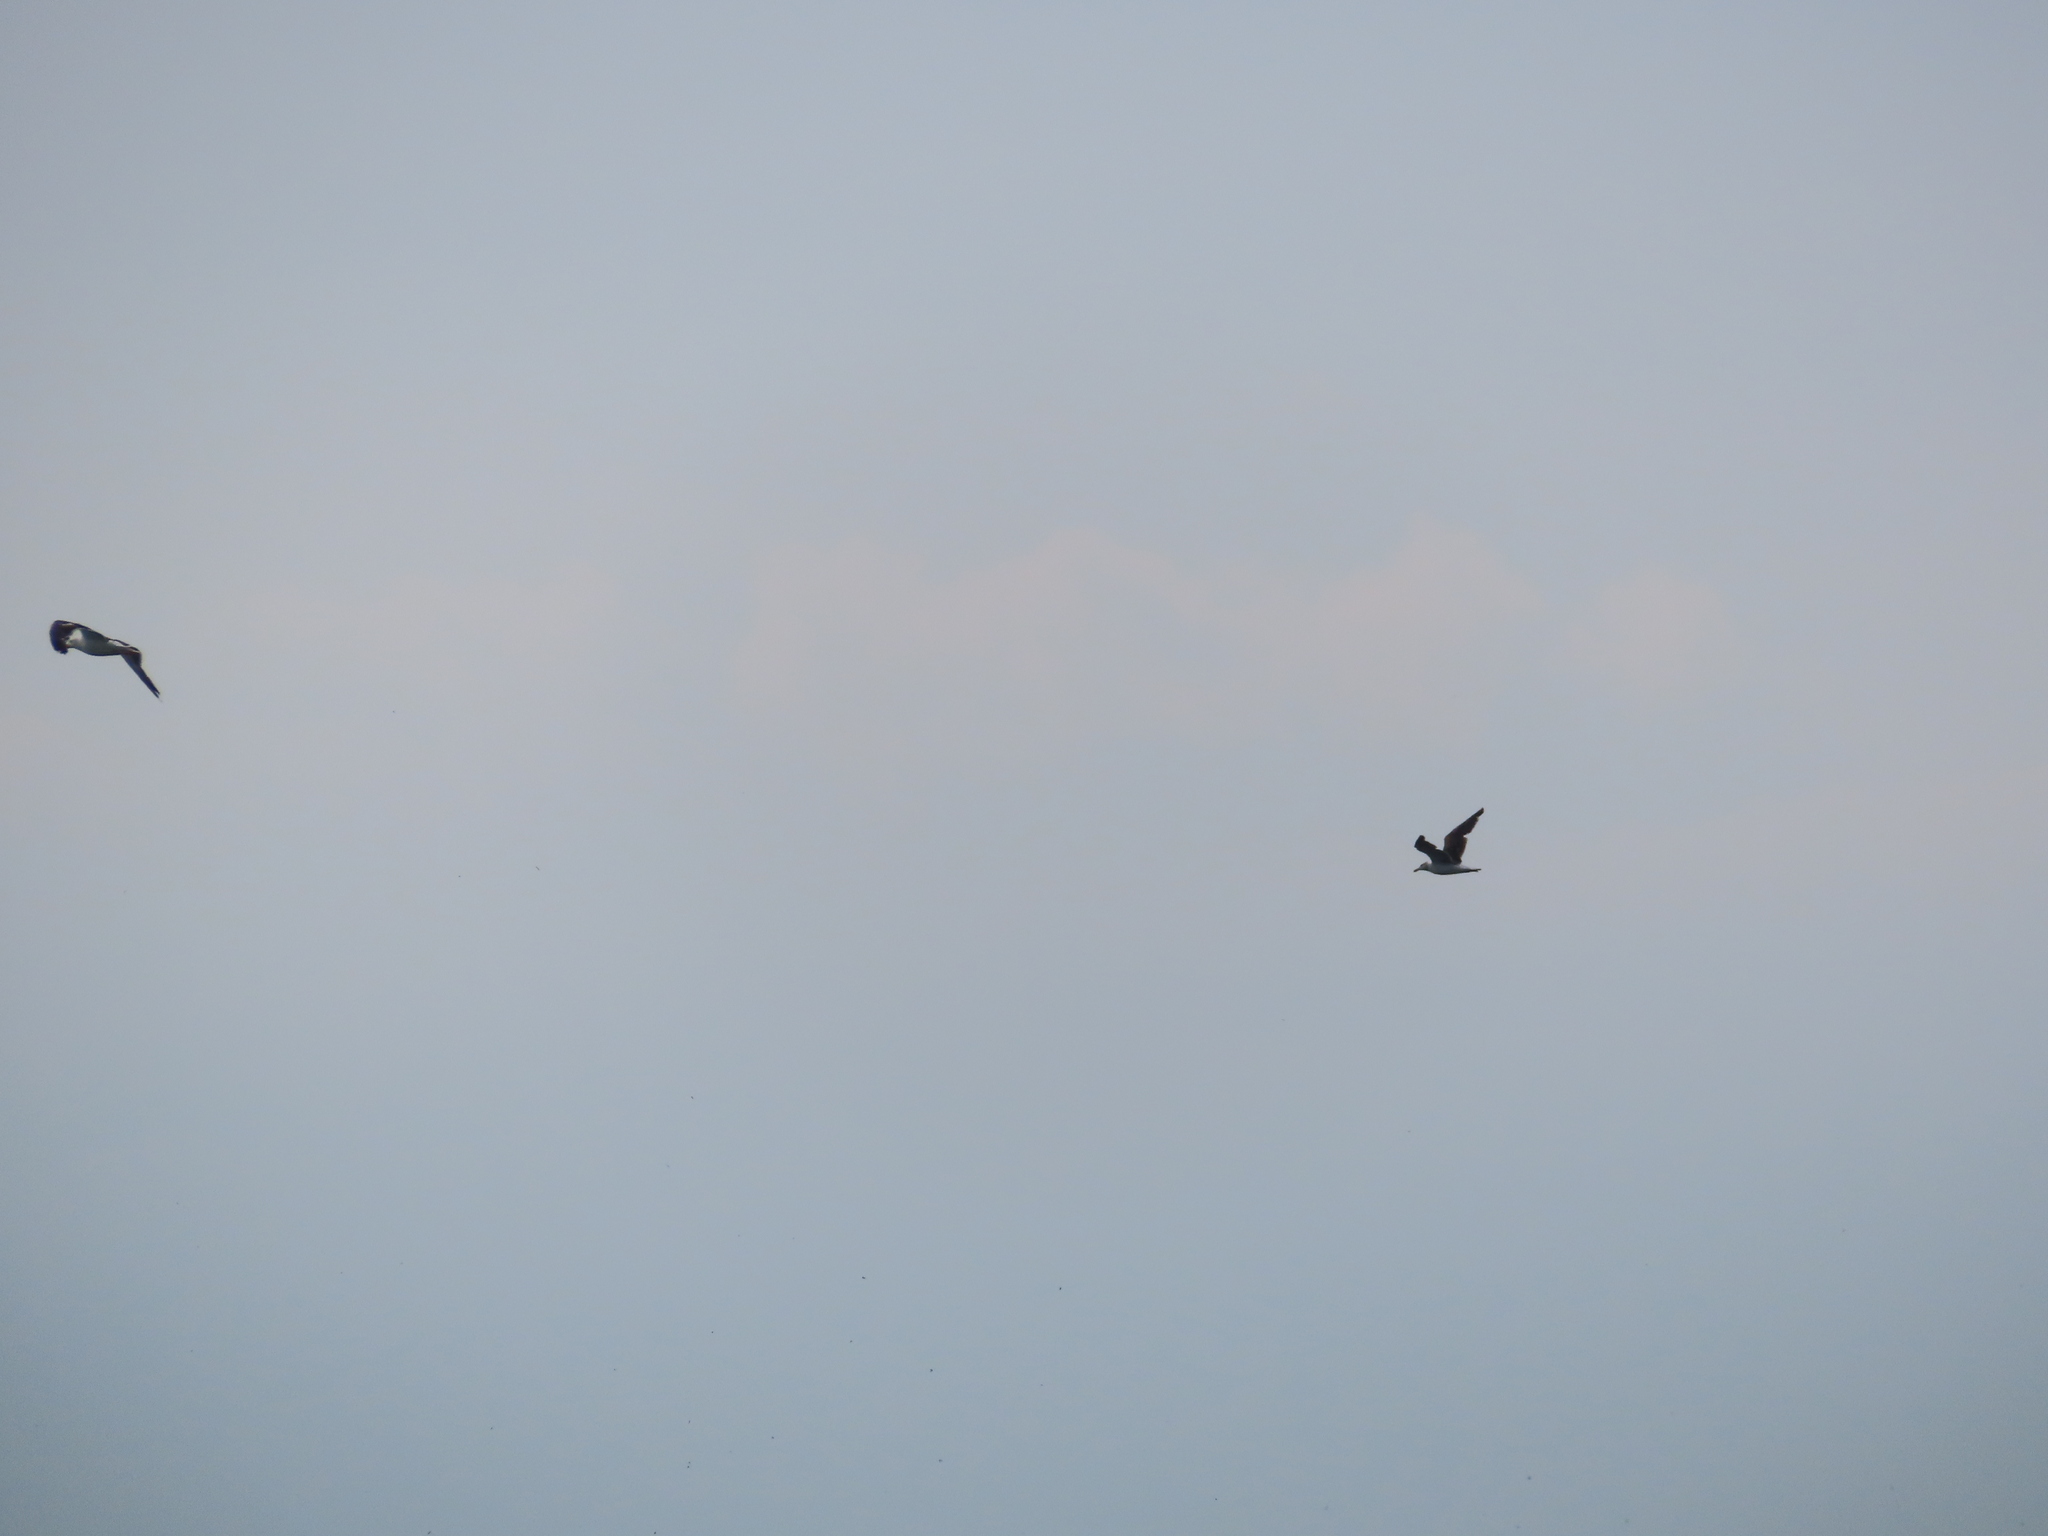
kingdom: Animalia
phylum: Chordata
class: Aves
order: Charadriiformes
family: Laridae
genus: Larus
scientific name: Larus marinus
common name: Great black-backed gull
